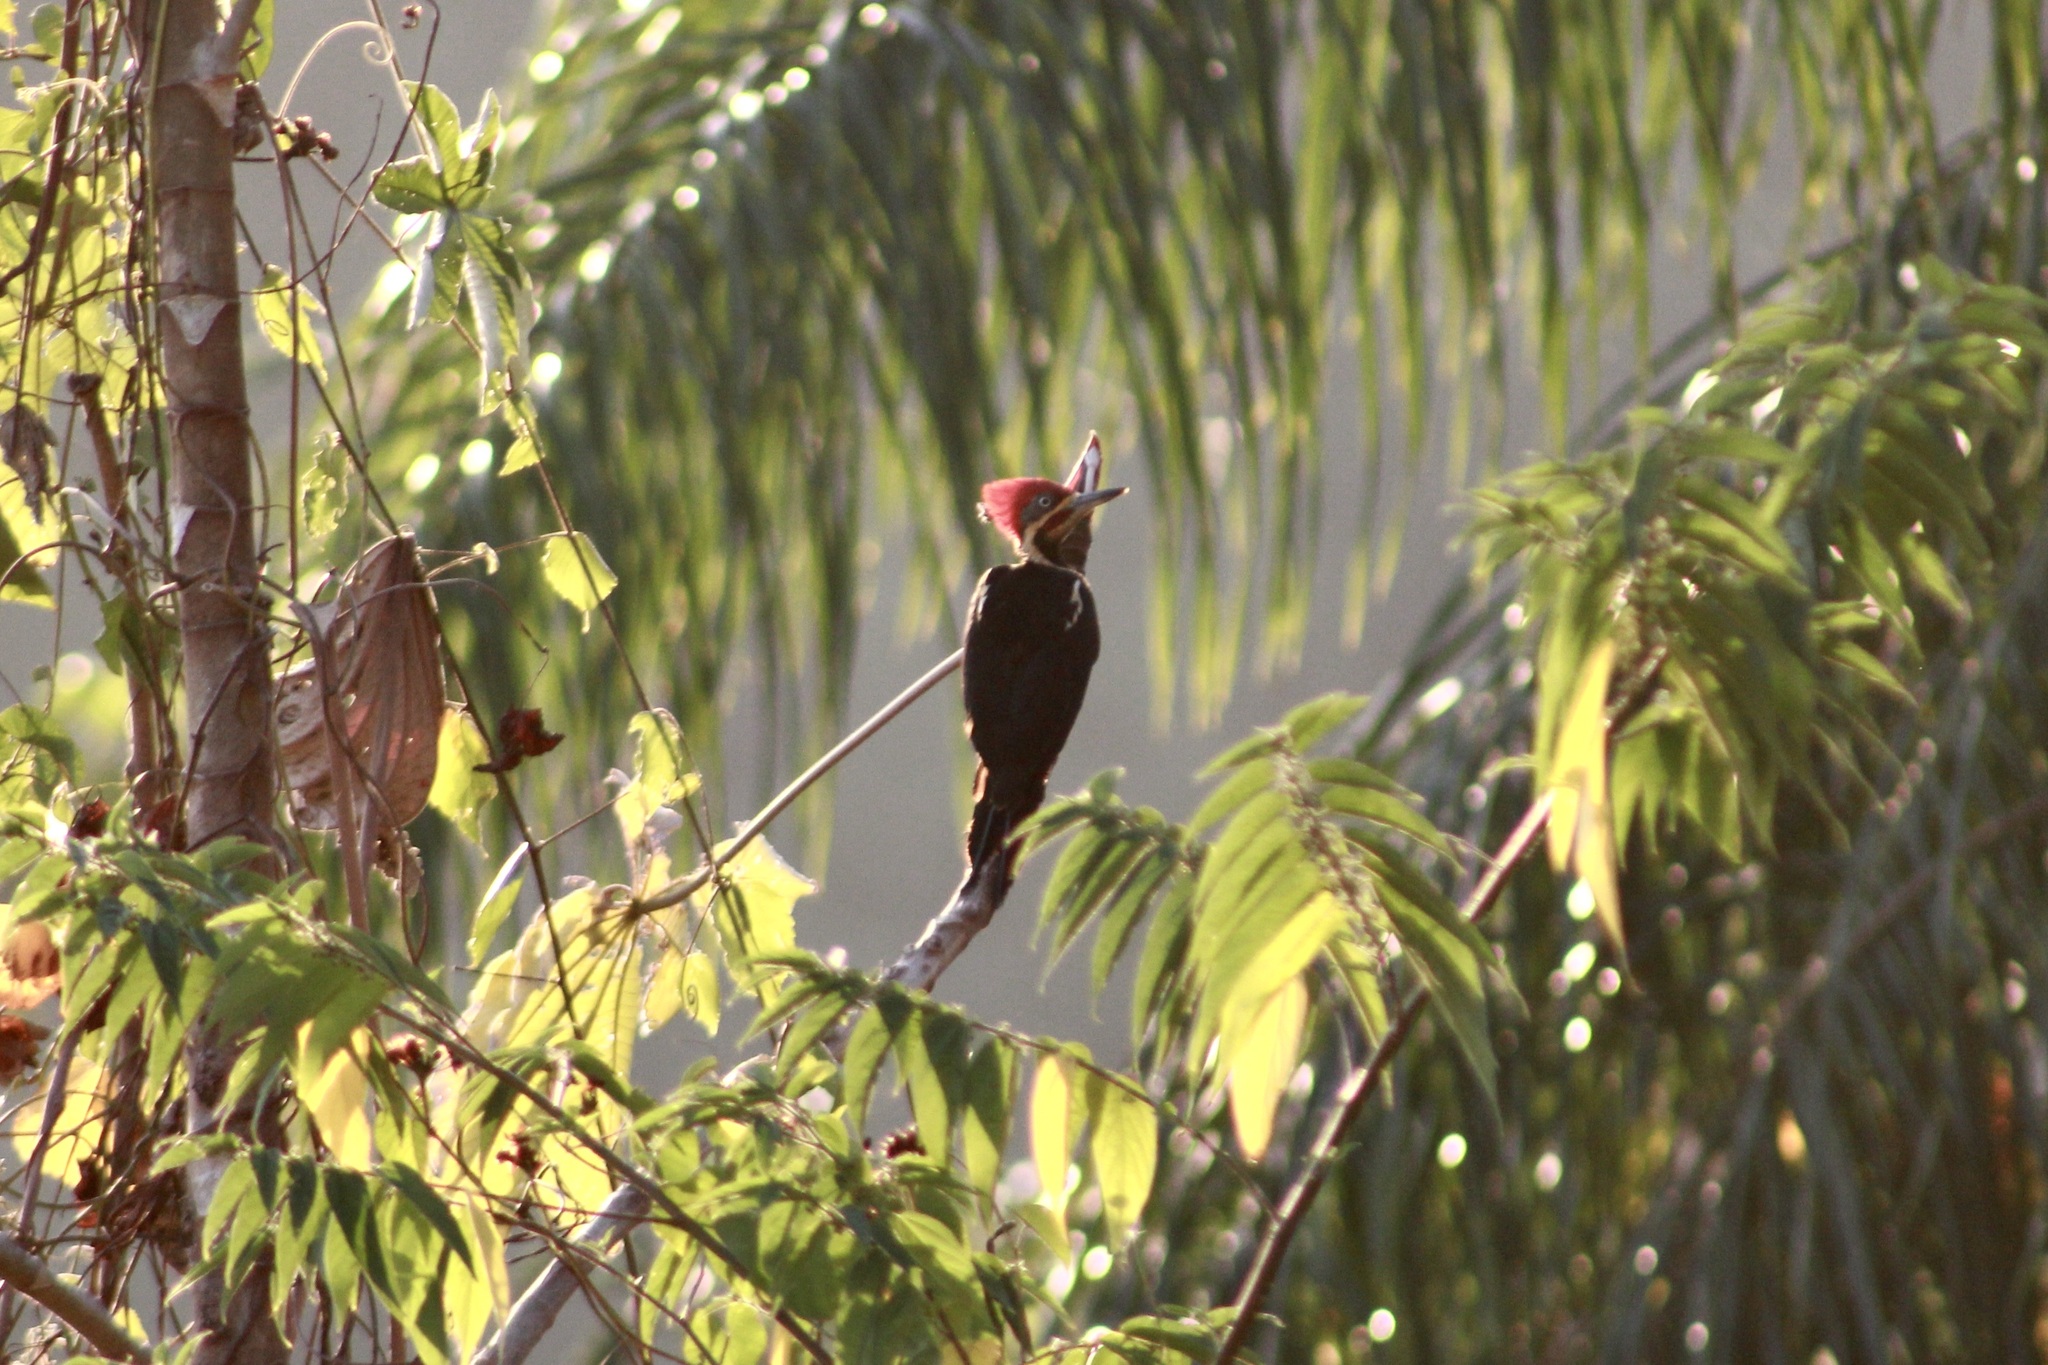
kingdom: Animalia
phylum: Chordata
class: Aves
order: Piciformes
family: Picidae
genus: Dryocopus
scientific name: Dryocopus lineatus
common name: Lineated woodpecker
